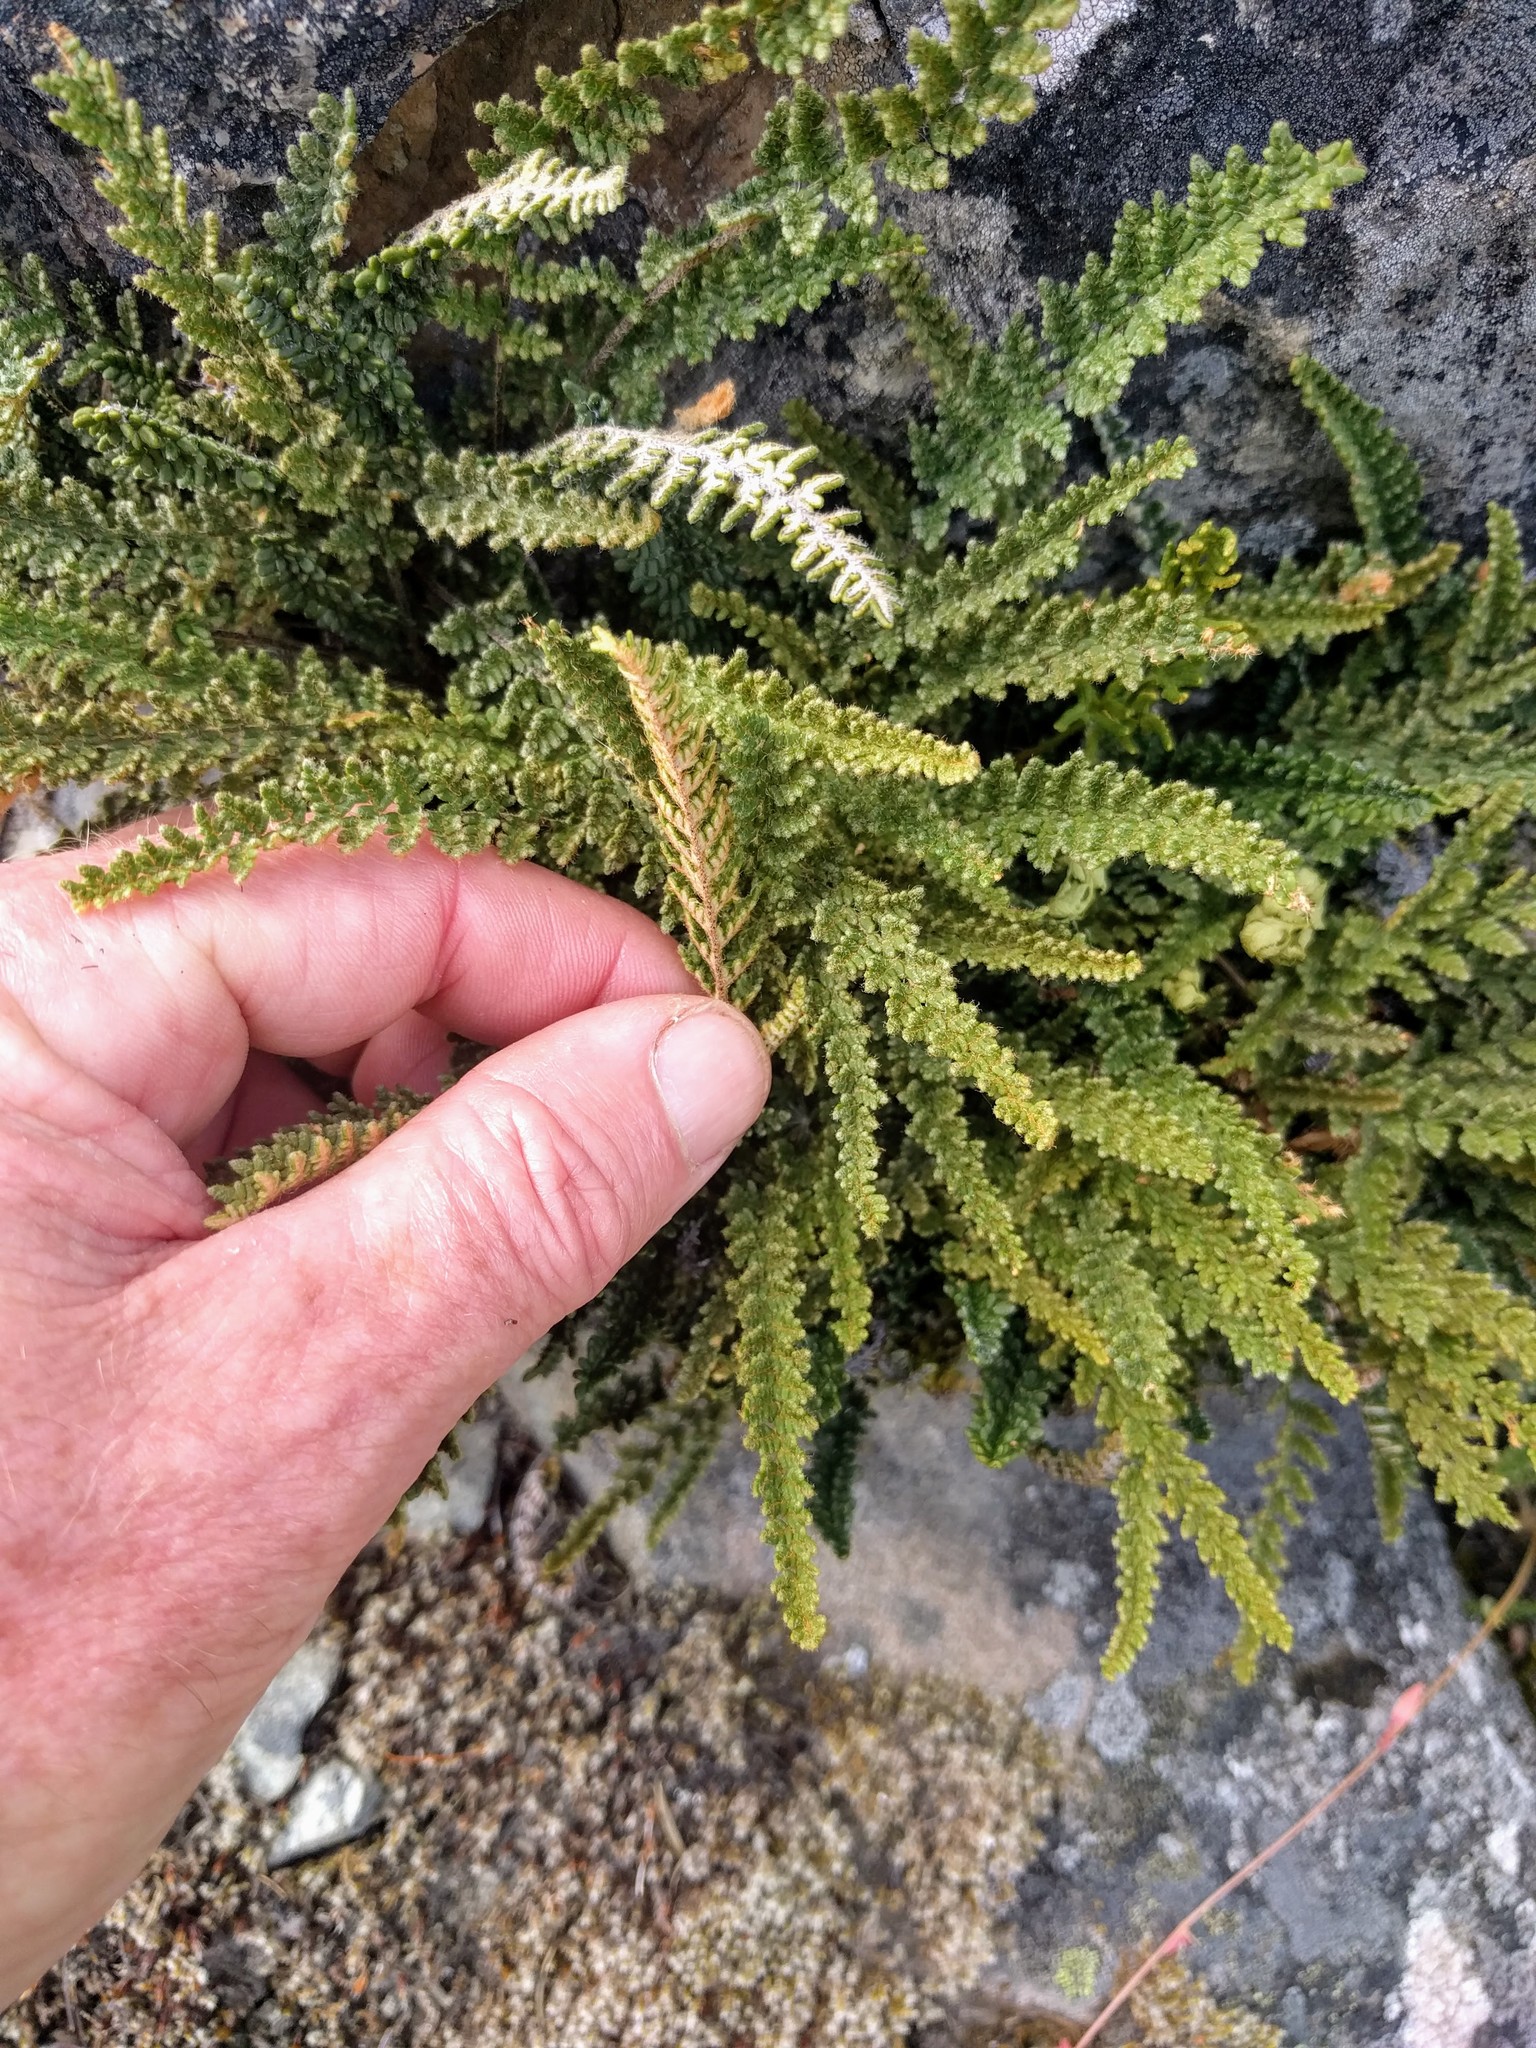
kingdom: Plantae
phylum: Tracheophyta
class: Polypodiopsida
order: Polypodiales
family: Pteridaceae
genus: Myriopteris
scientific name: Myriopteris gracillima
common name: Lace fern
